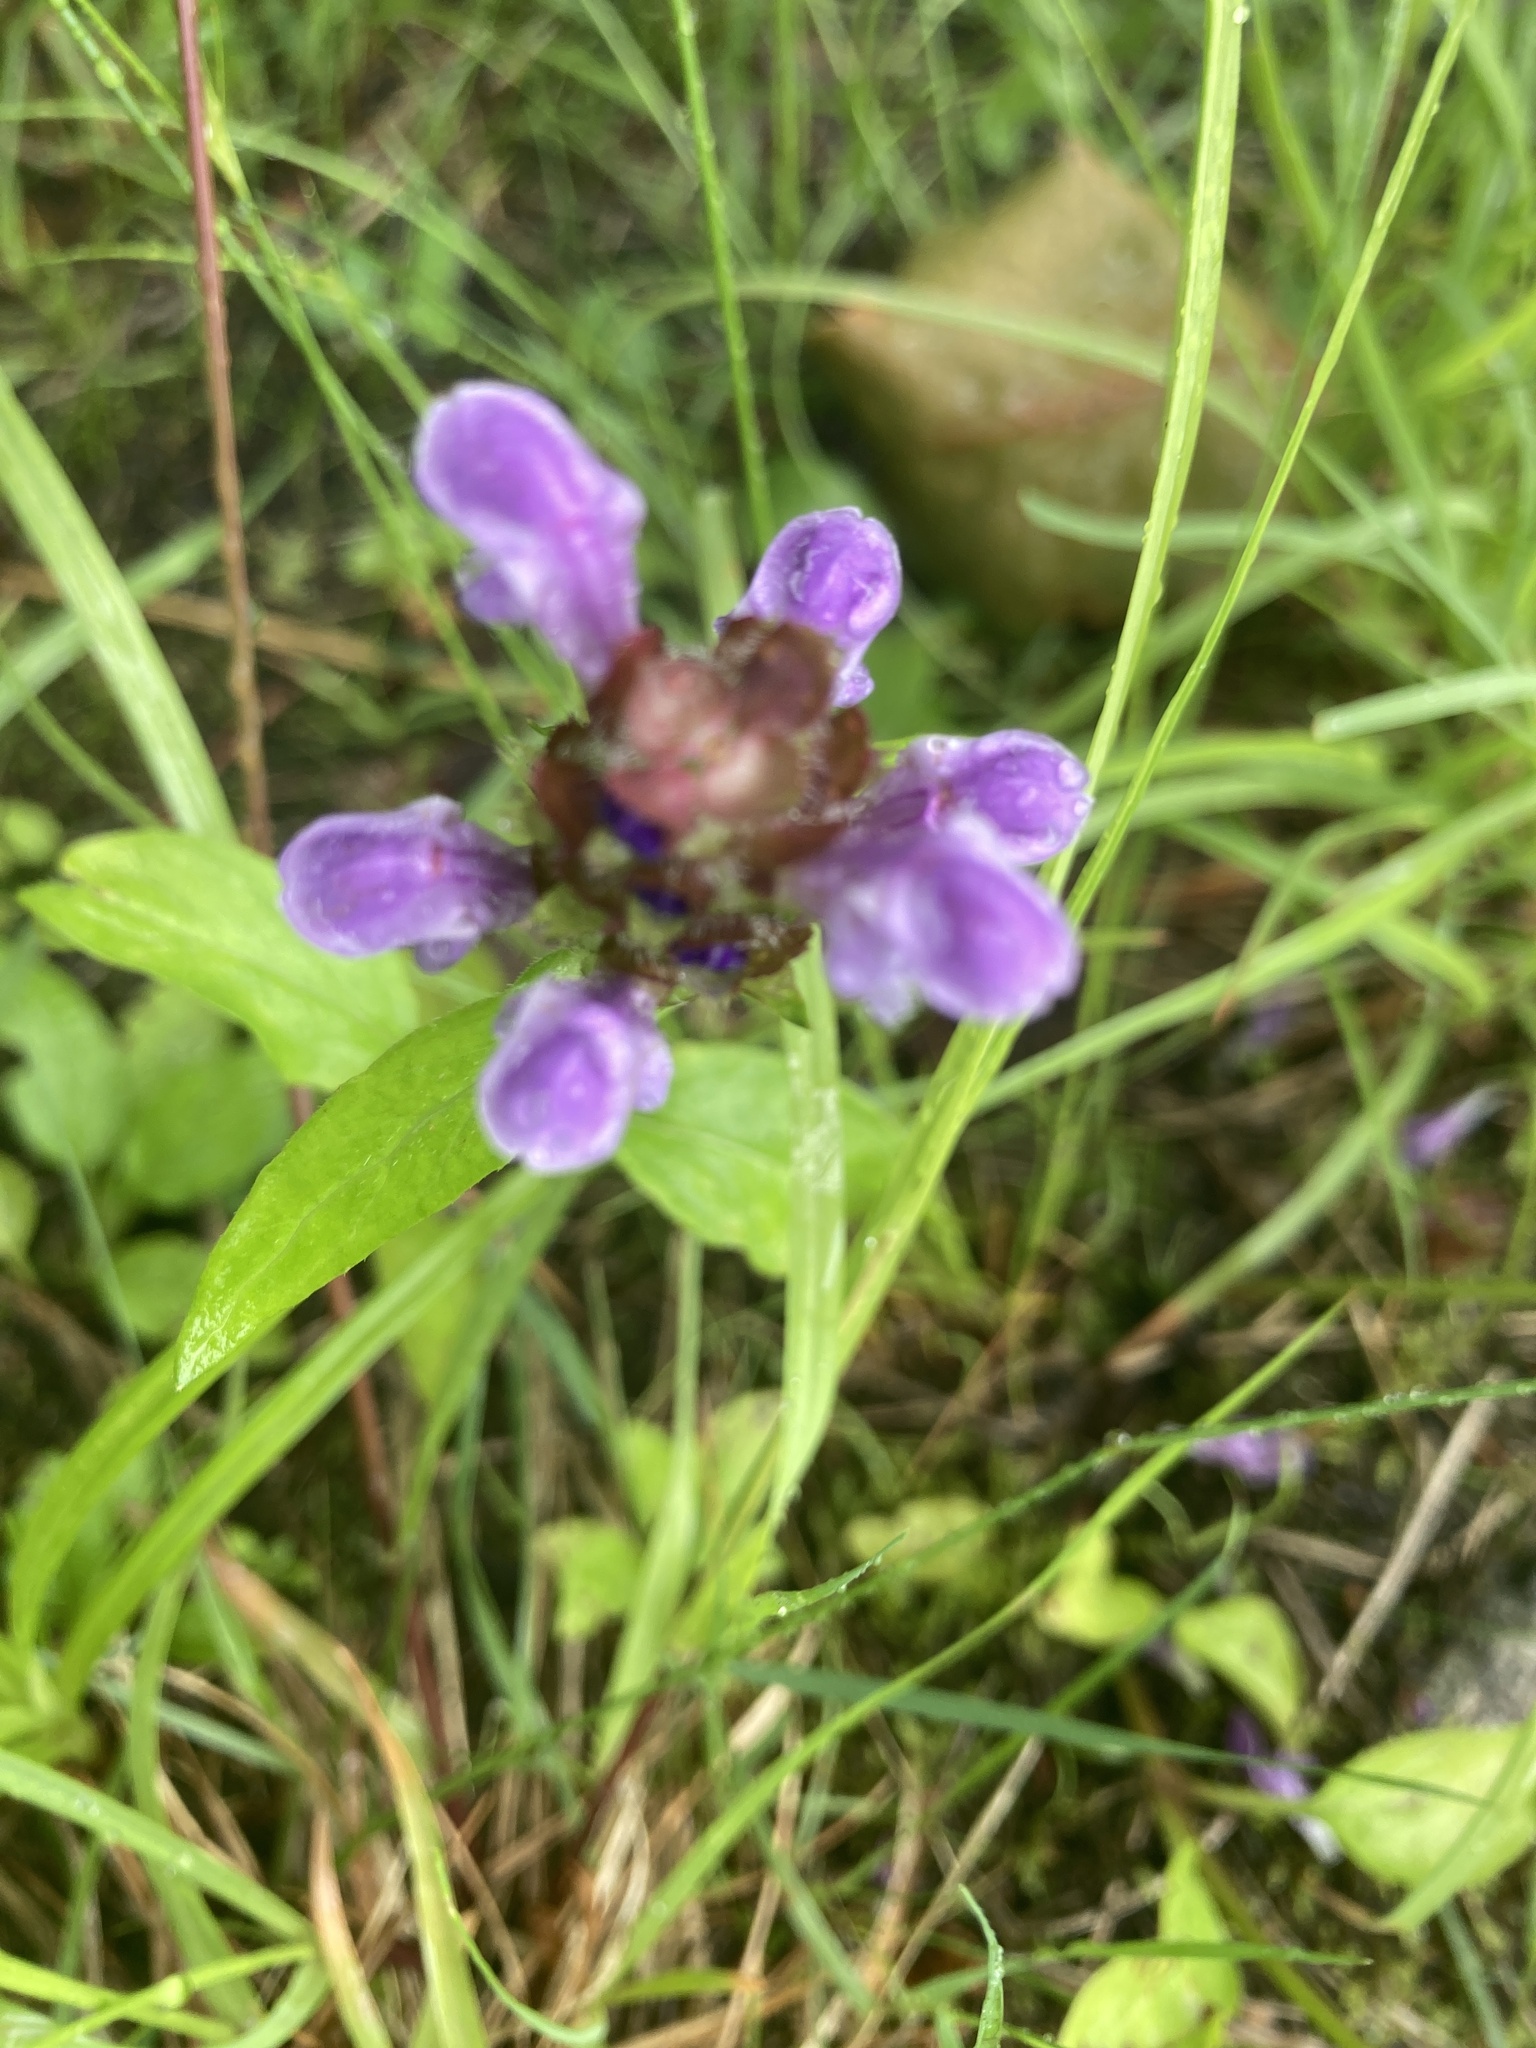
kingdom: Plantae
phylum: Tracheophyta
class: Magnoliopsida
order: Lamiales
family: Lamiaceae
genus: Prunella
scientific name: Prunella vulgaris
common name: Heal-all
